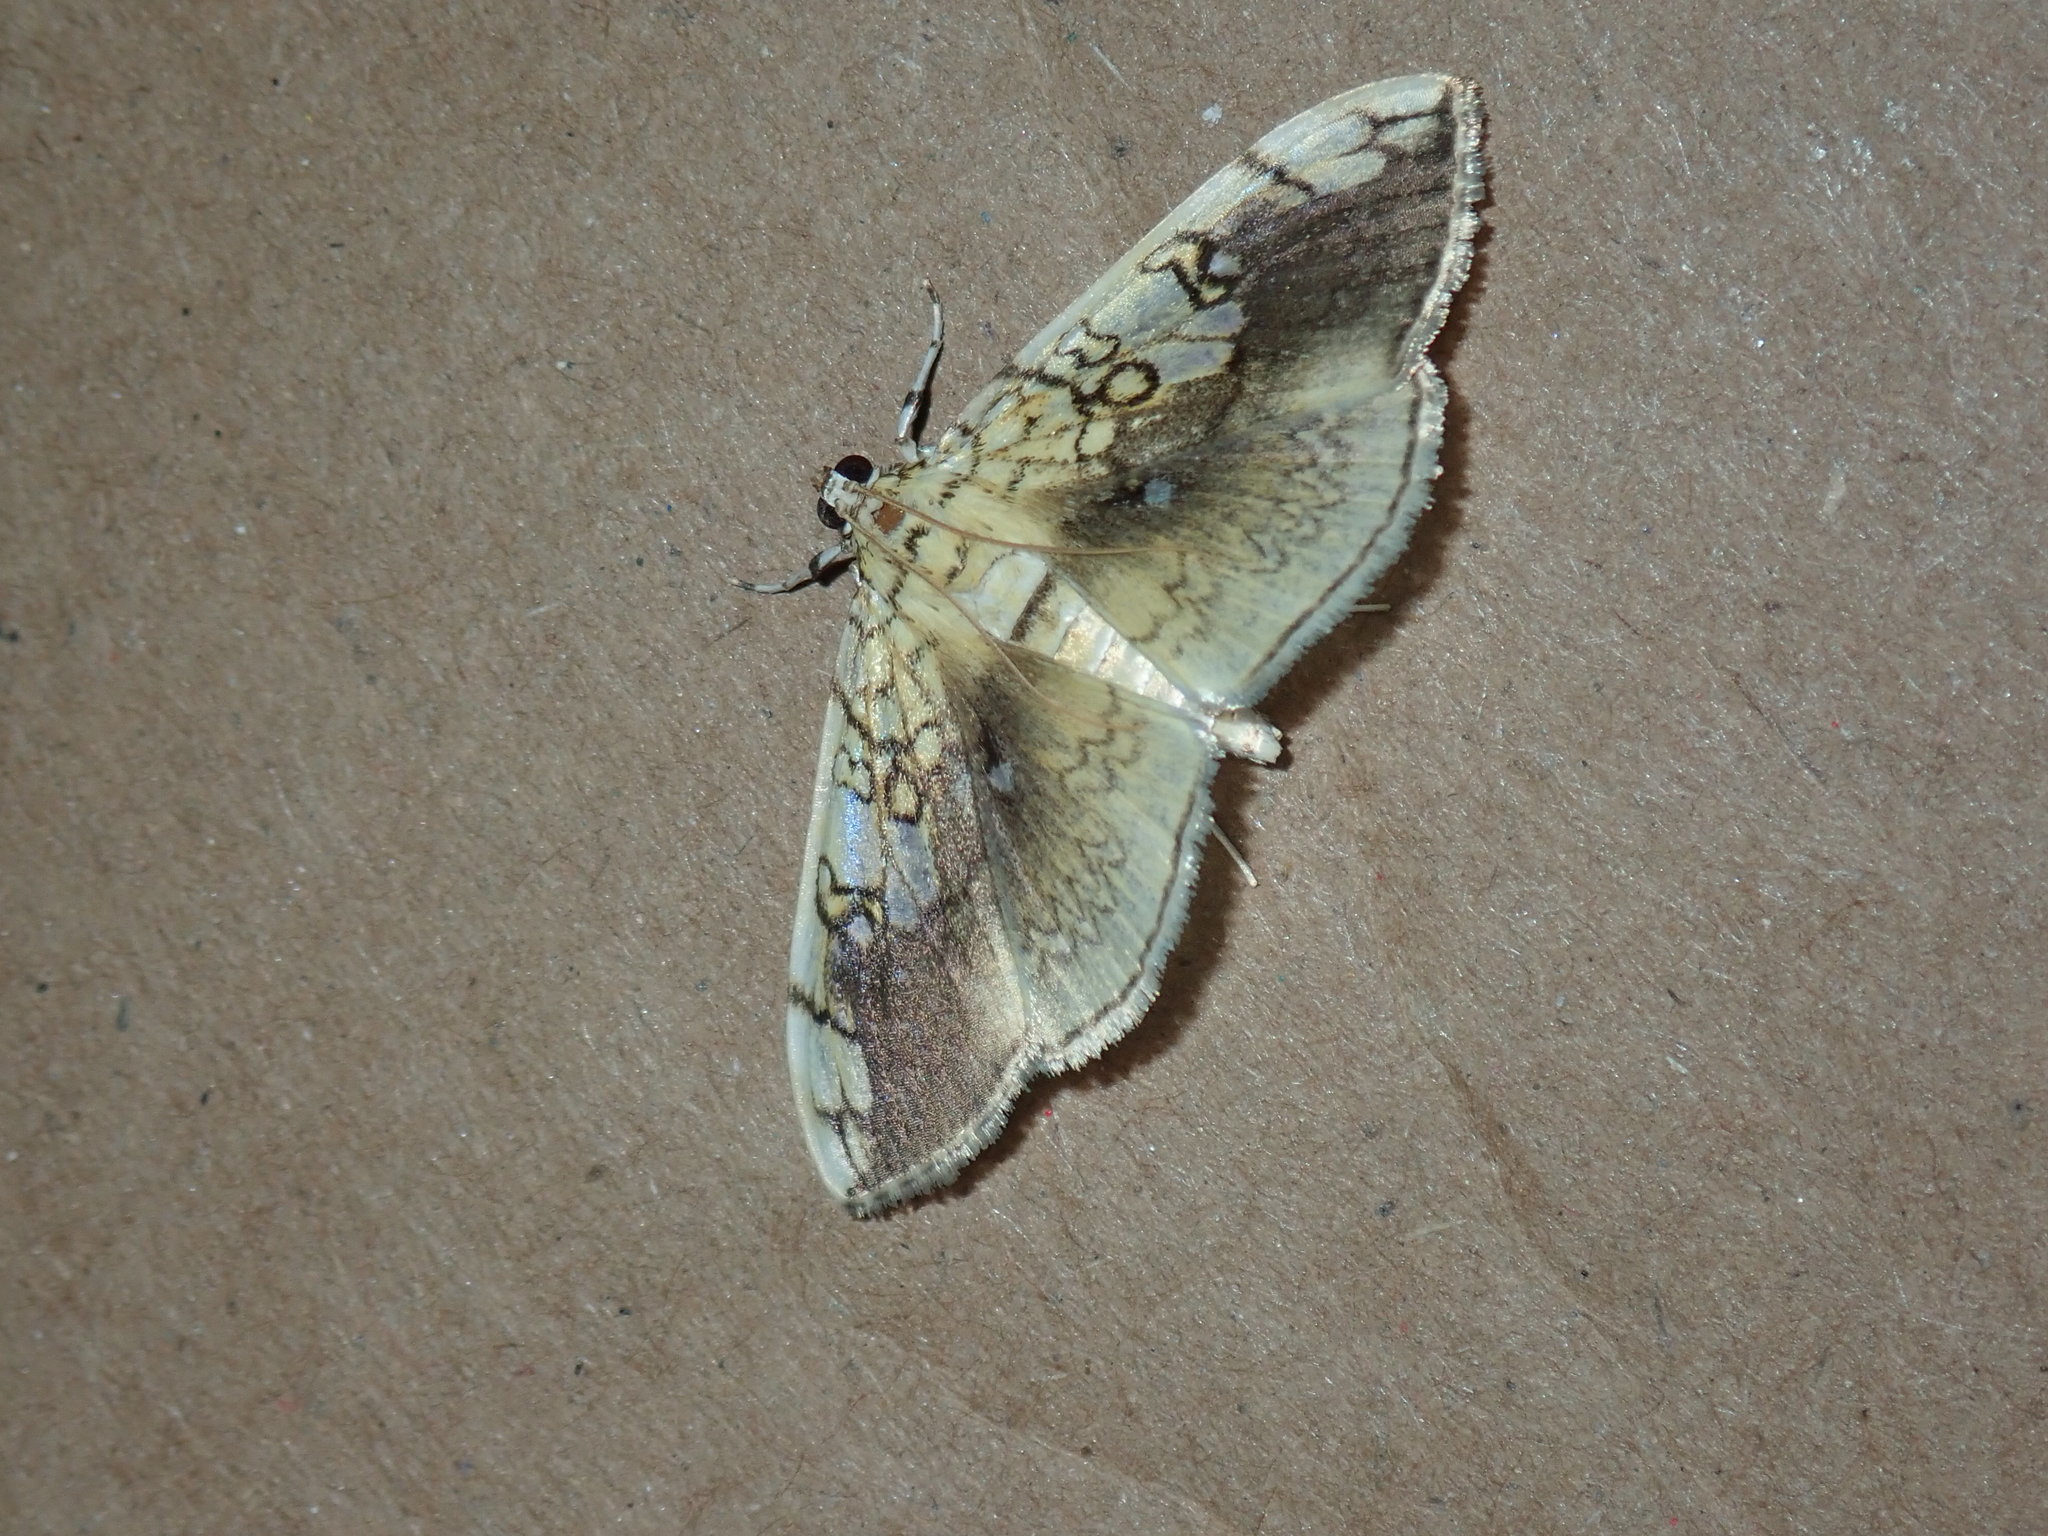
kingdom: Animalia
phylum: Arthropoda
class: Insecta
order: Lepidoptera
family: Crambidae
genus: Pantographa
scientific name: Pantographa limata
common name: Basswood leafroller moth
